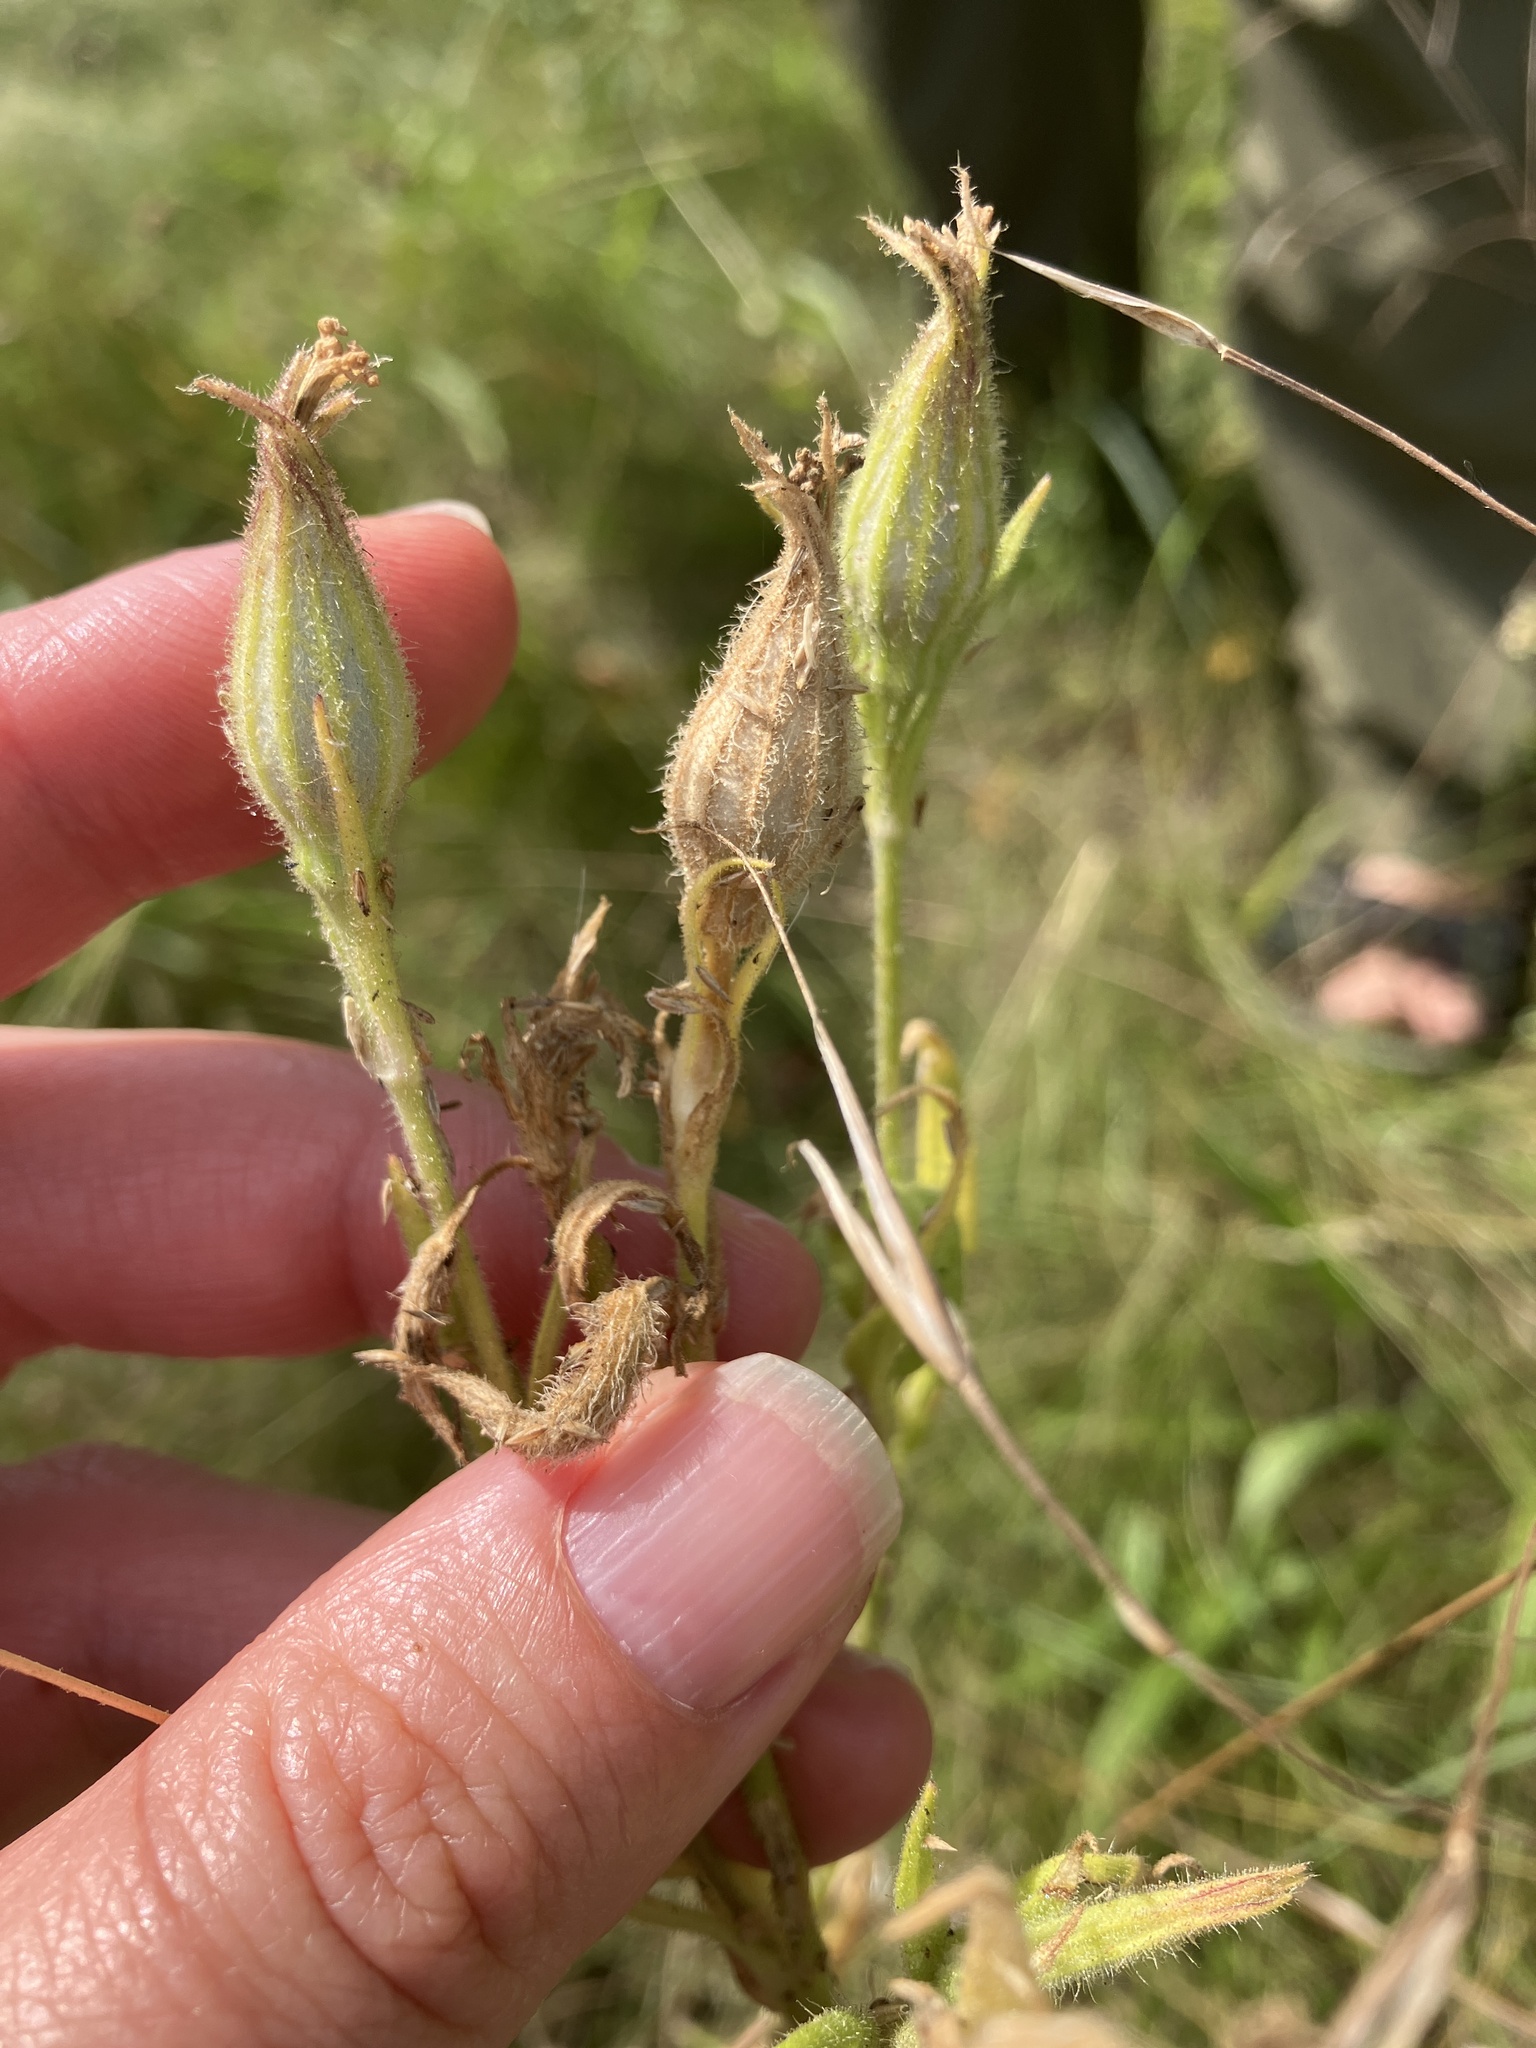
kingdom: Plantae
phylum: Tracheophyta
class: Magnoliopsida
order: Caryophyllales
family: Caryophyllaceae
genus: Silene
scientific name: Silene noctiflora
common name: Night-flowering catchfly
